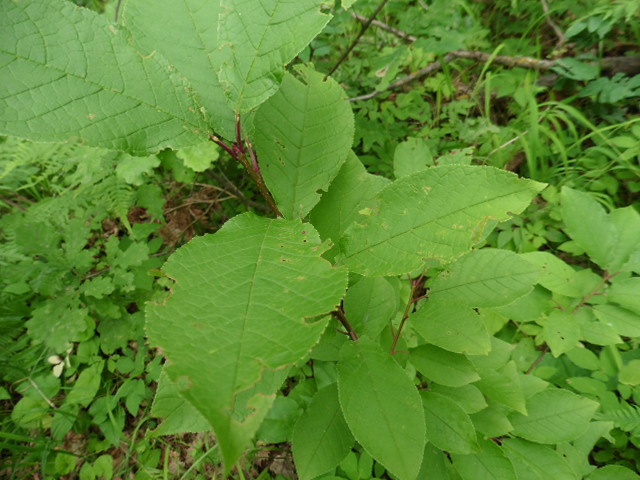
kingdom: Plantae
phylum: Tracheophyta
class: Magnoliopsida
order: Rosales
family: Rosaceae
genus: Prunus
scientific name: Prunus padus
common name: Bird cherry
